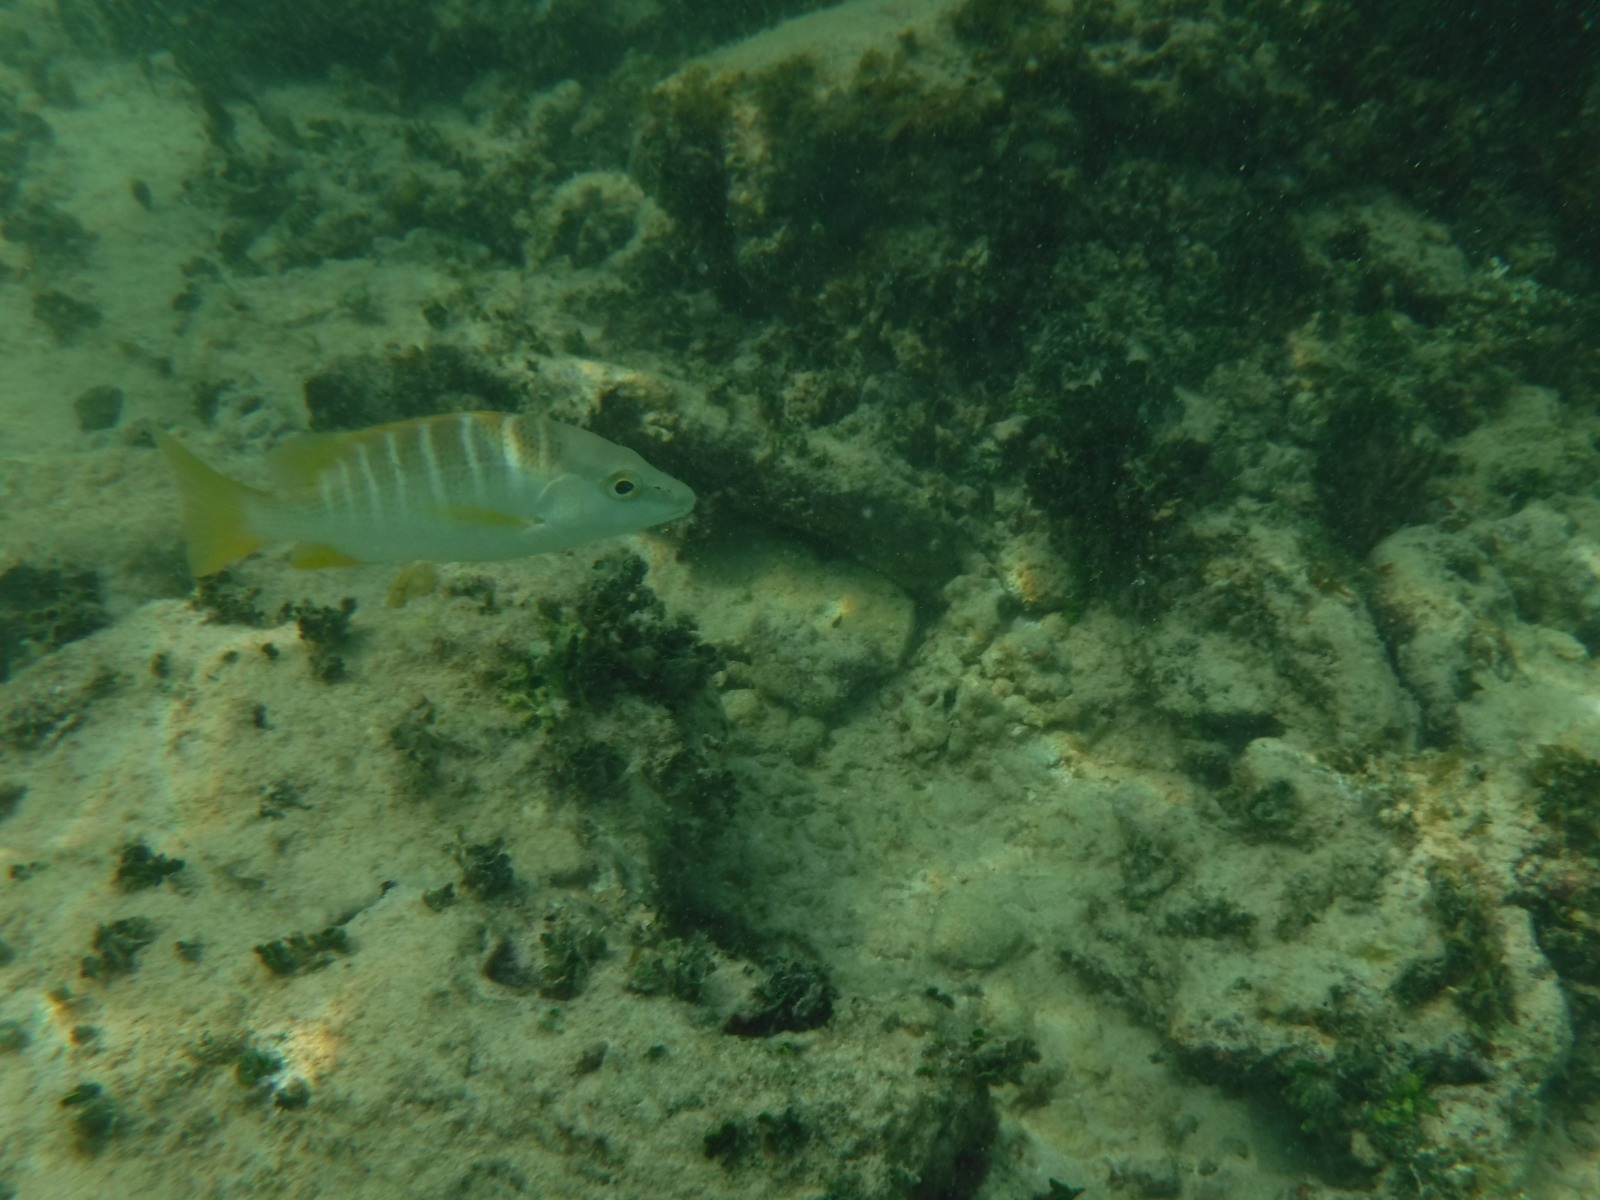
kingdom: Animalia
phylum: Chordata
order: Perciformes
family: Lutjanidae
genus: Lutjanus
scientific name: Lutjanus apodus
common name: Schoolmaster
